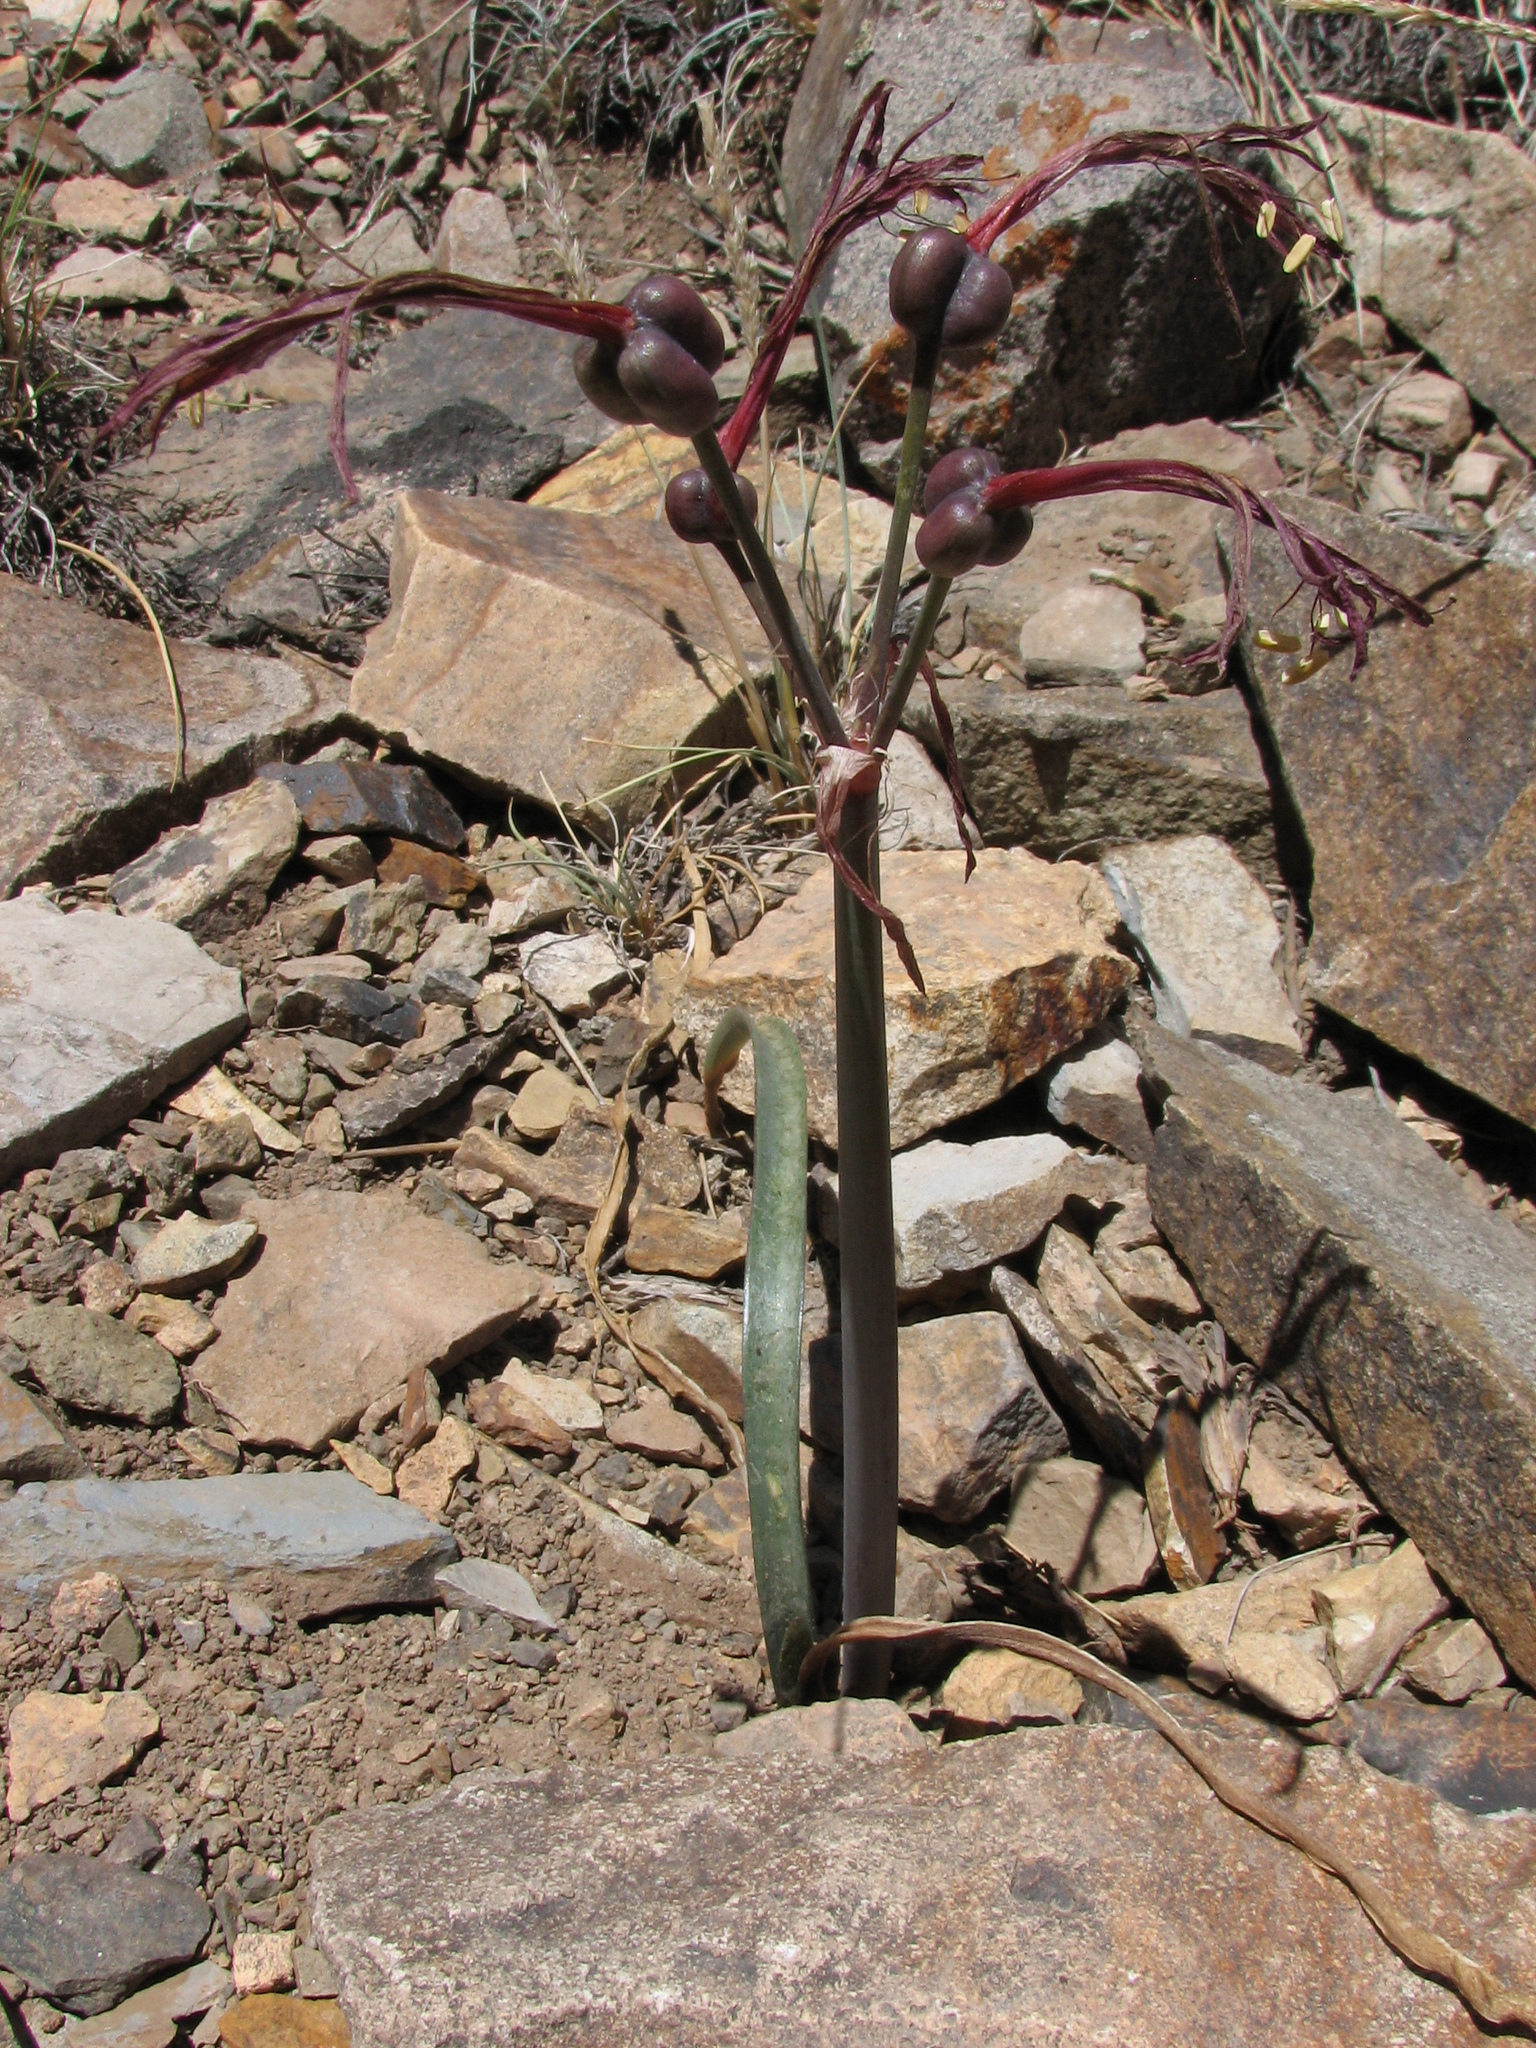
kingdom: Plantae
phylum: Tracheophyta
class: Liliopsida
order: Asparagales
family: Amaryllidaceae
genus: Zephyranthes
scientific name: Zephyranthes graciliflora
